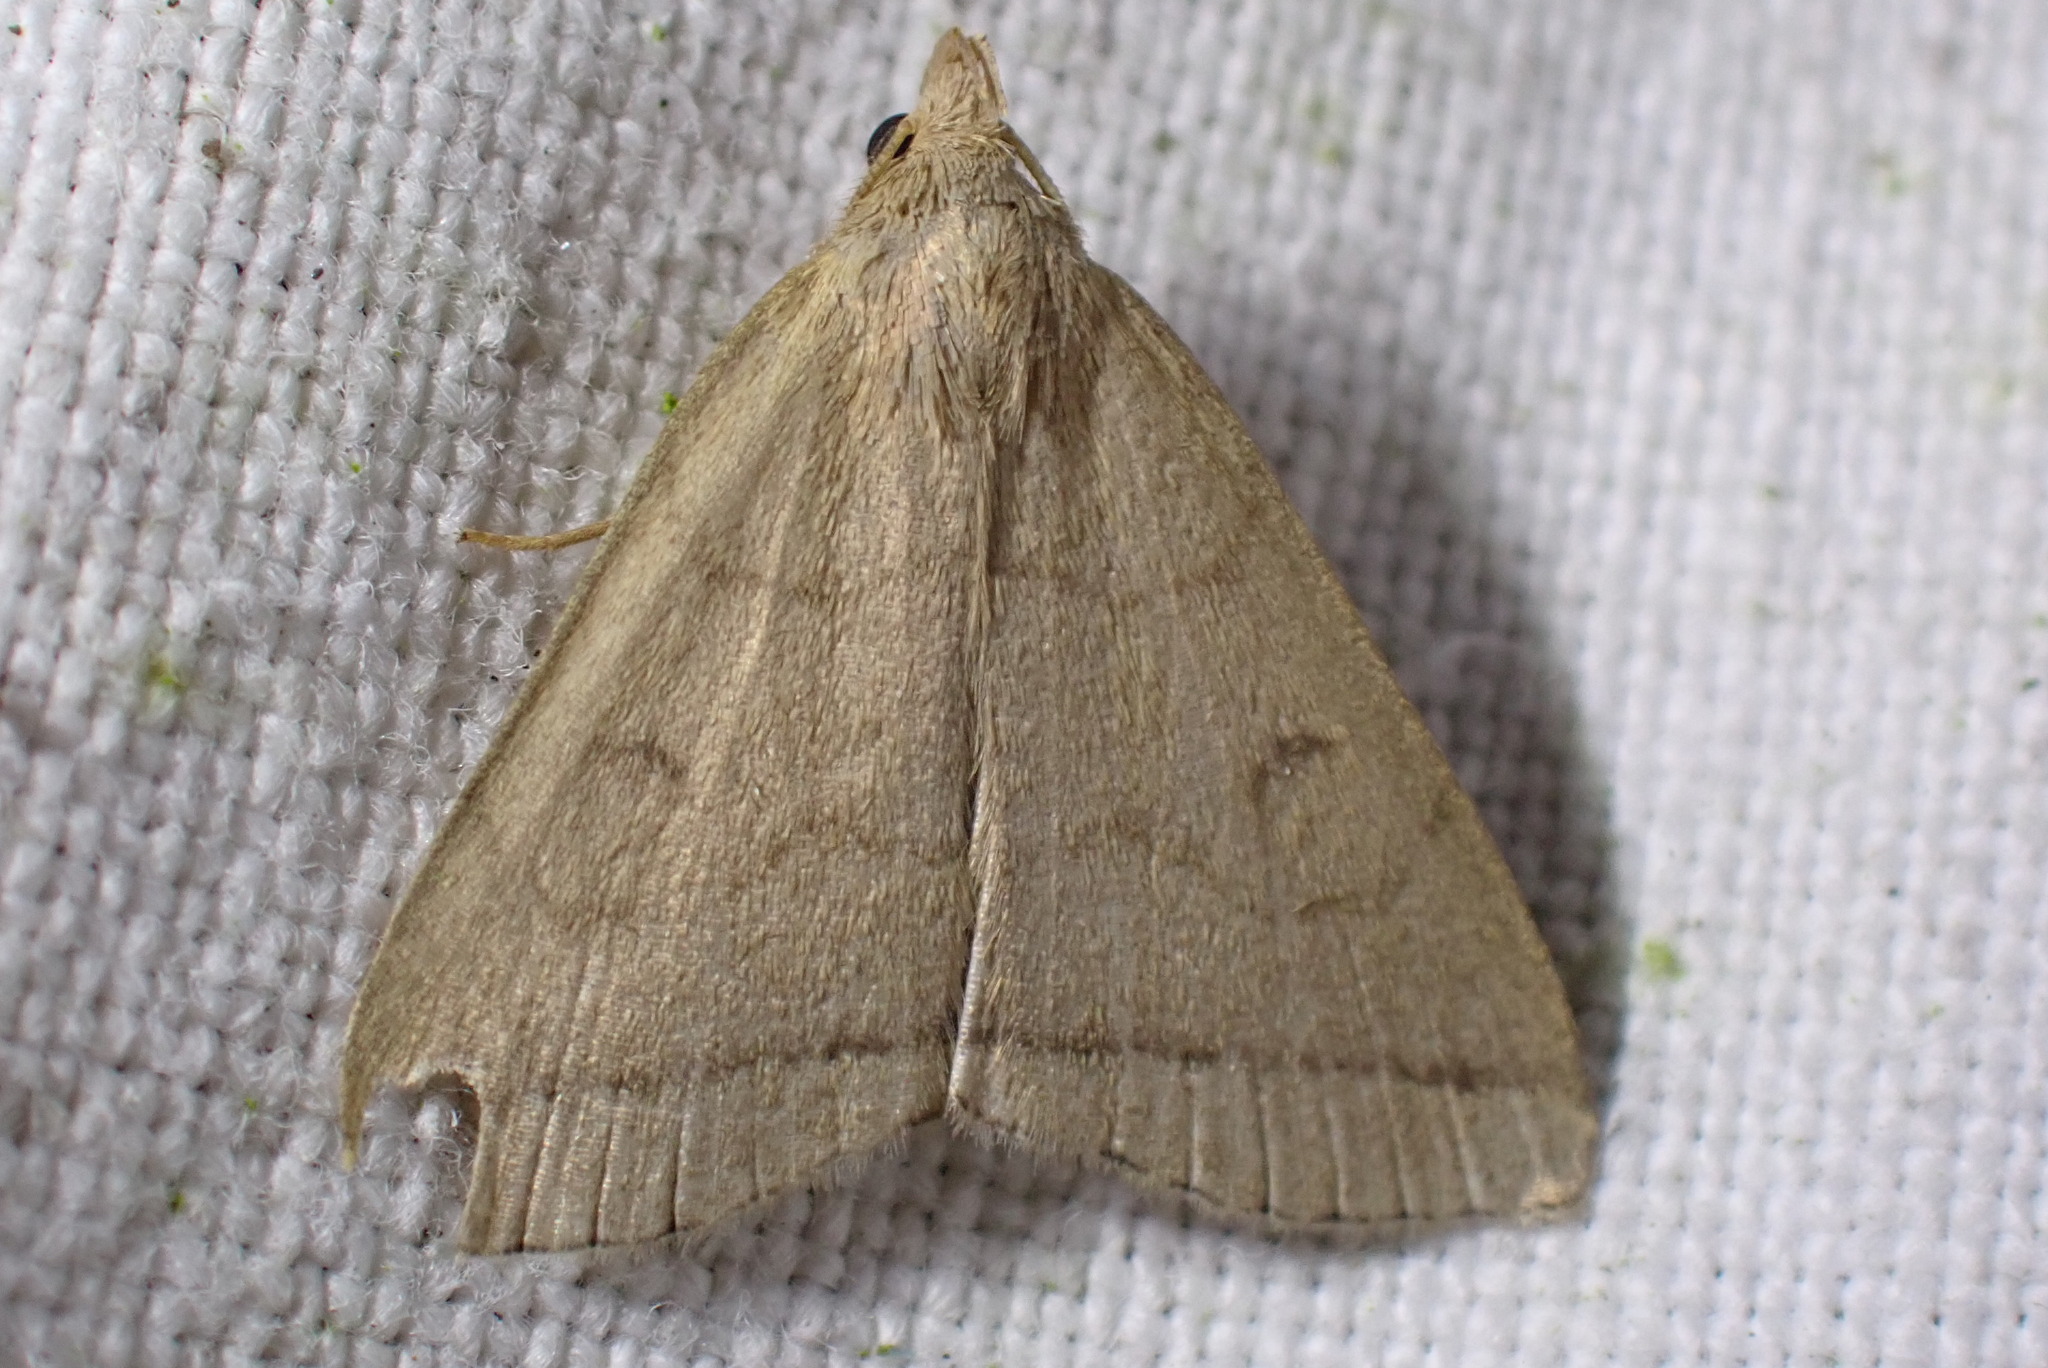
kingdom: Animalia
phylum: Arthropoda
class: Insecta
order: Lepidoptera
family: Erebidae
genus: Herminia
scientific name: Herminia tarsipennalis
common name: Fan-foot
